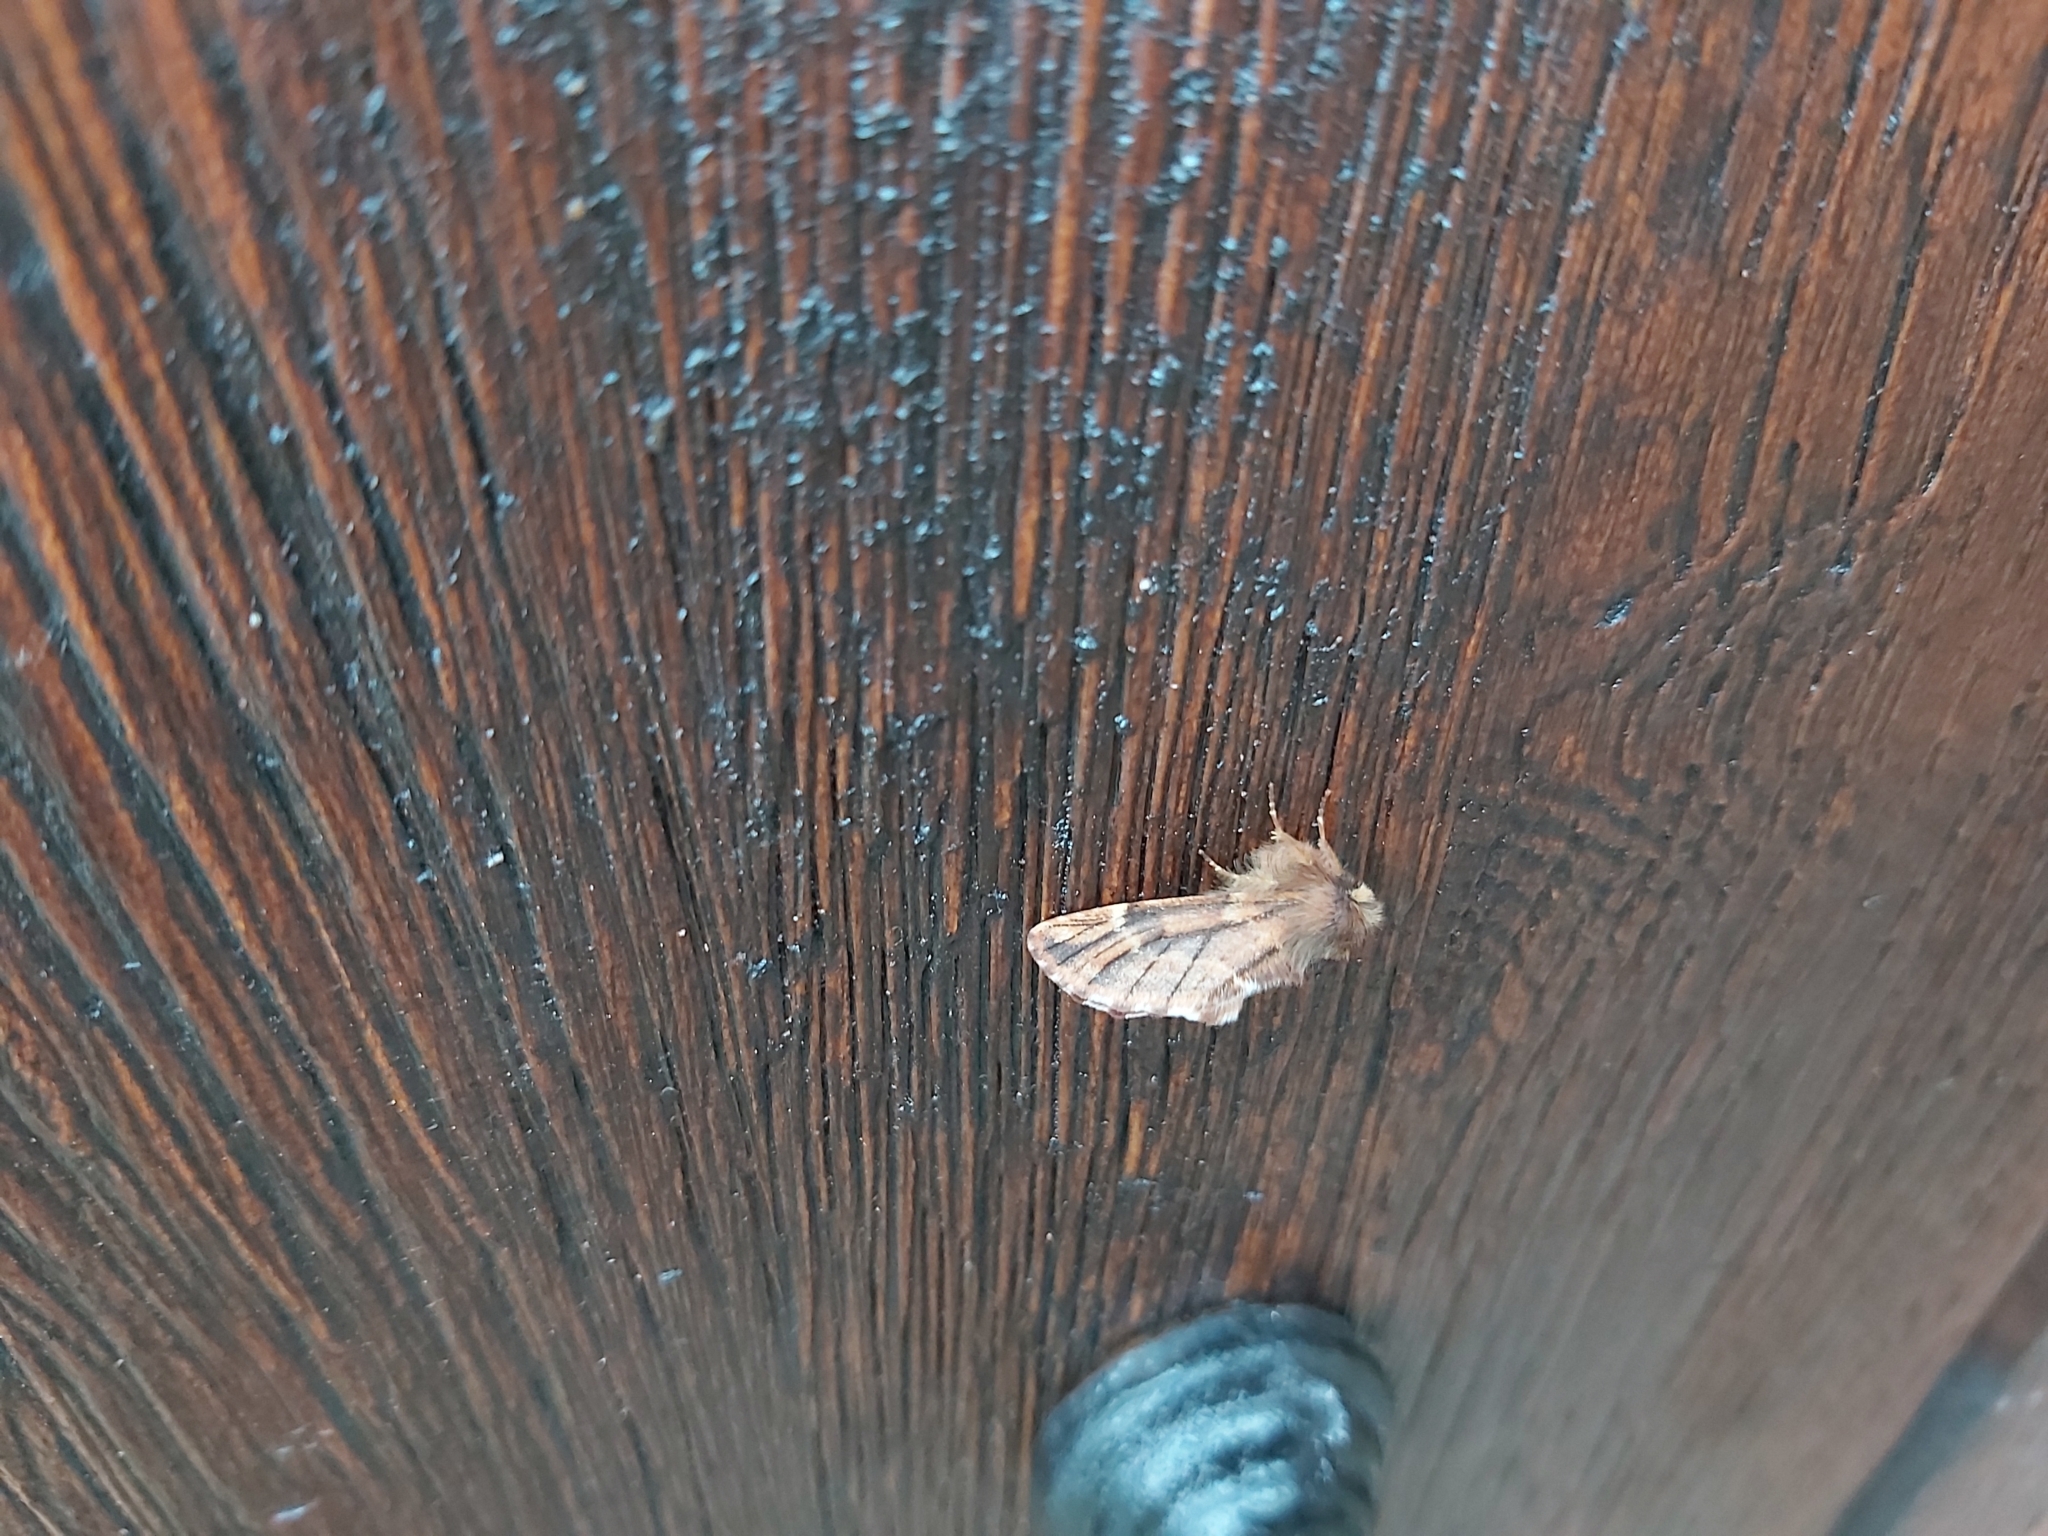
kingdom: Animalia
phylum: Arthropoda
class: Insecta
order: Lepidoptera
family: Notodontidae
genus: Ptilophora
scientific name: Ptilophora plumigera
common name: Plumed prominent
